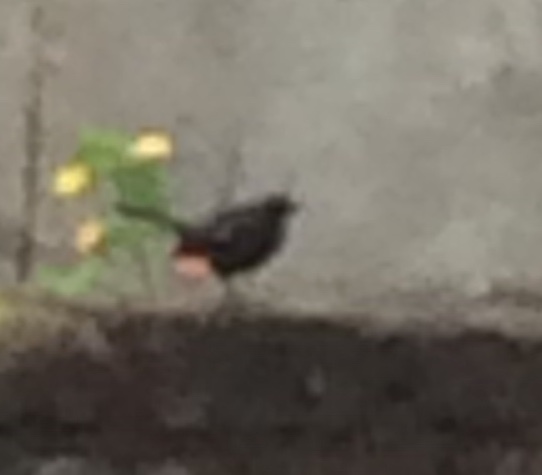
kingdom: Animalia
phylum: Chordata
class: Aves
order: Passeriformes
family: Muscicapidae
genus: Saxicoloides
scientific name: Saxicoloides fulicatus
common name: Indian robin
